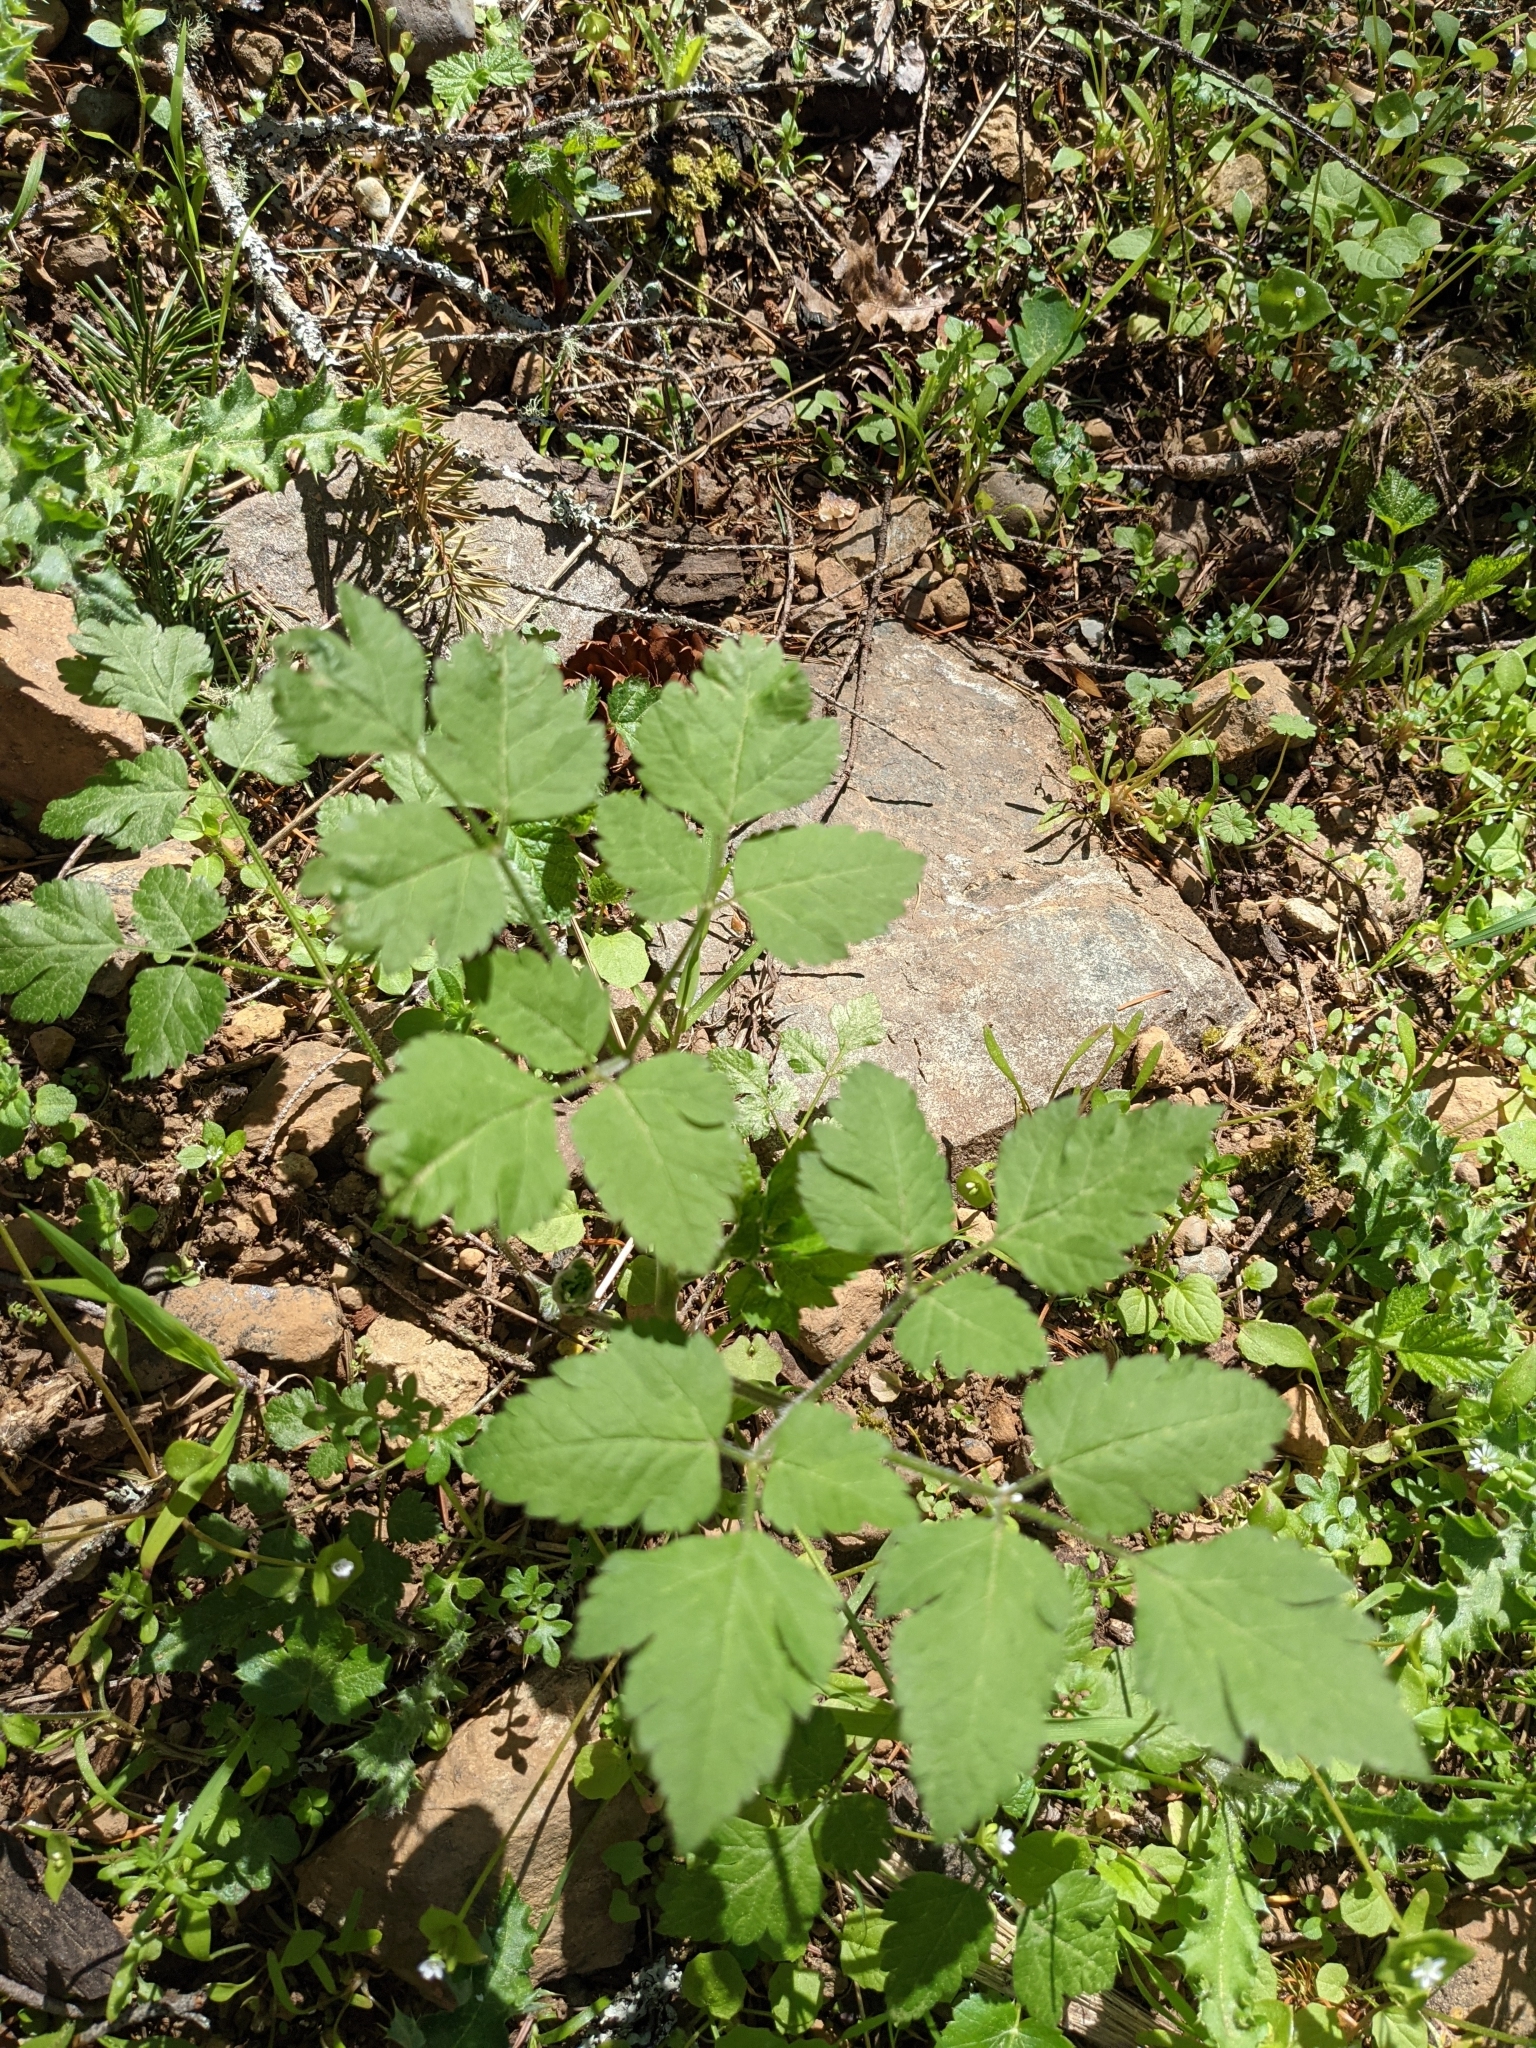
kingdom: Plantae
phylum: Tracheophyta
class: Magnoliopsida
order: Apiales
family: Apiaceae
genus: Osmorhiza
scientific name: Osmorhiza berteroi
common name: Mountain sweet cicely
